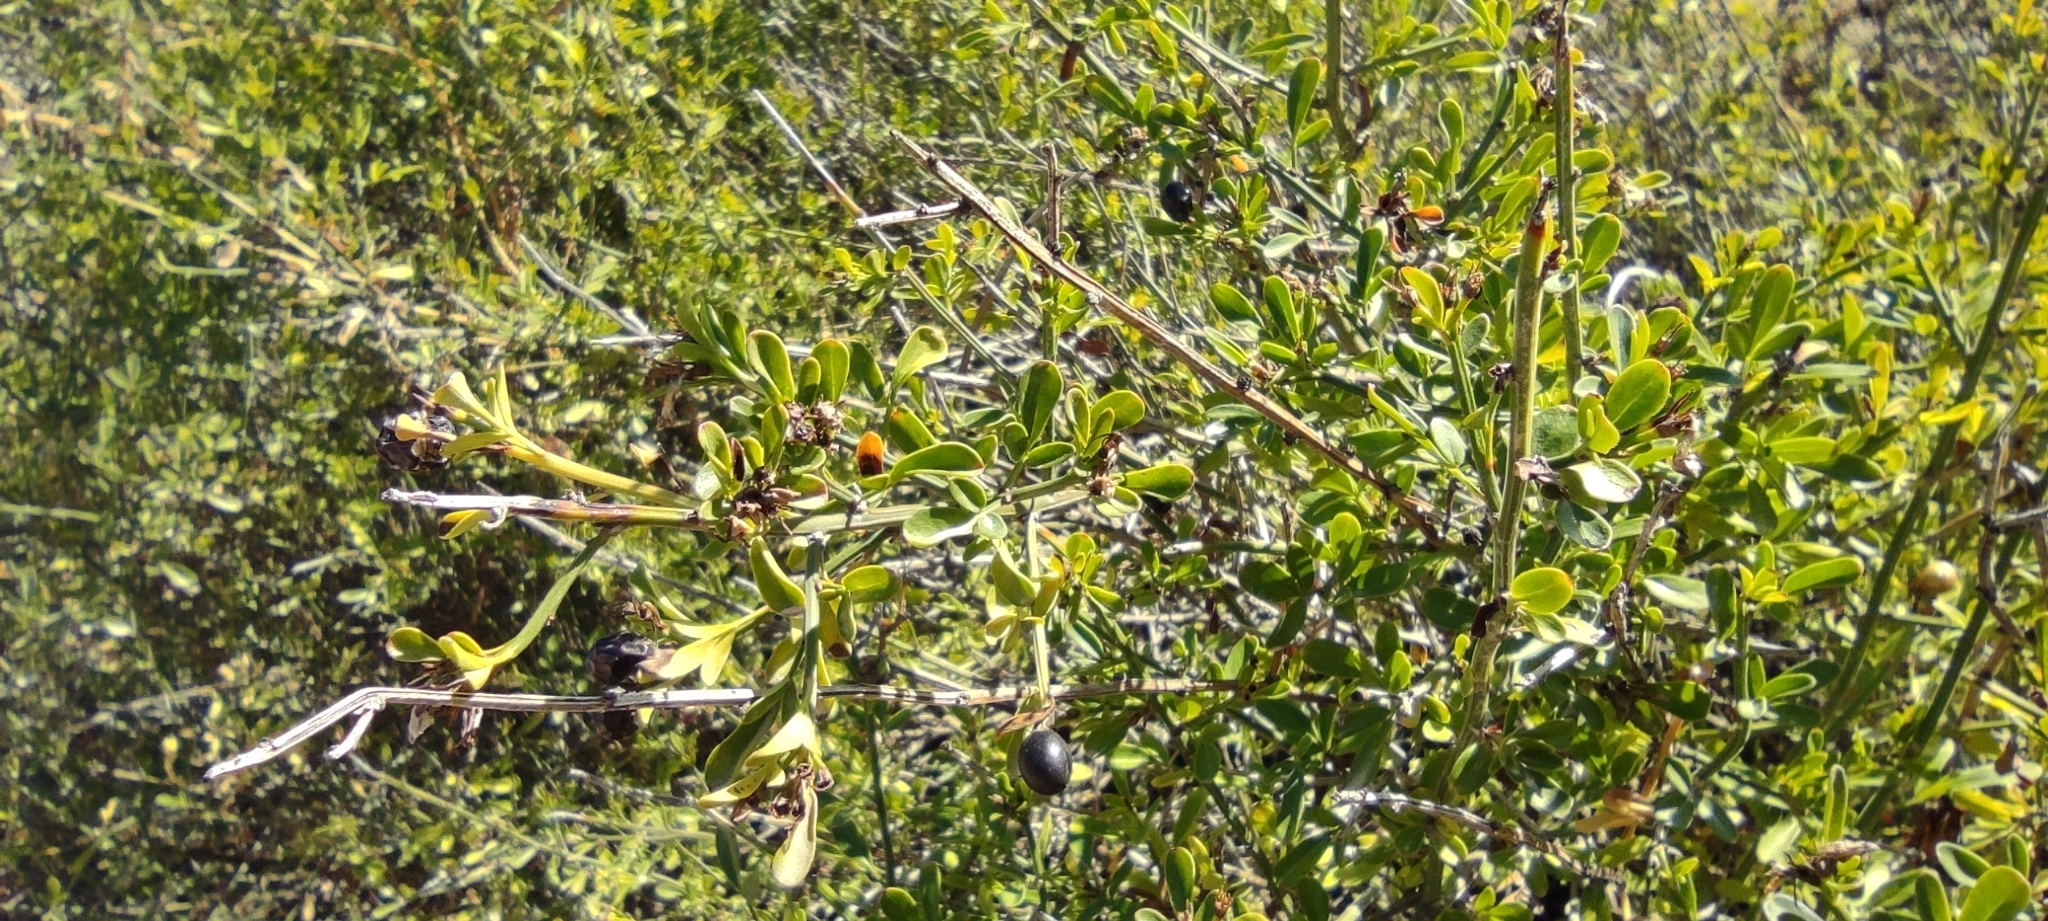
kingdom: Plantae
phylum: Tracheophyta
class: Magnoliopsida
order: Lamiales
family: Oleaceae
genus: Chrysojasminum
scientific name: Chrysojasminum fruticans
